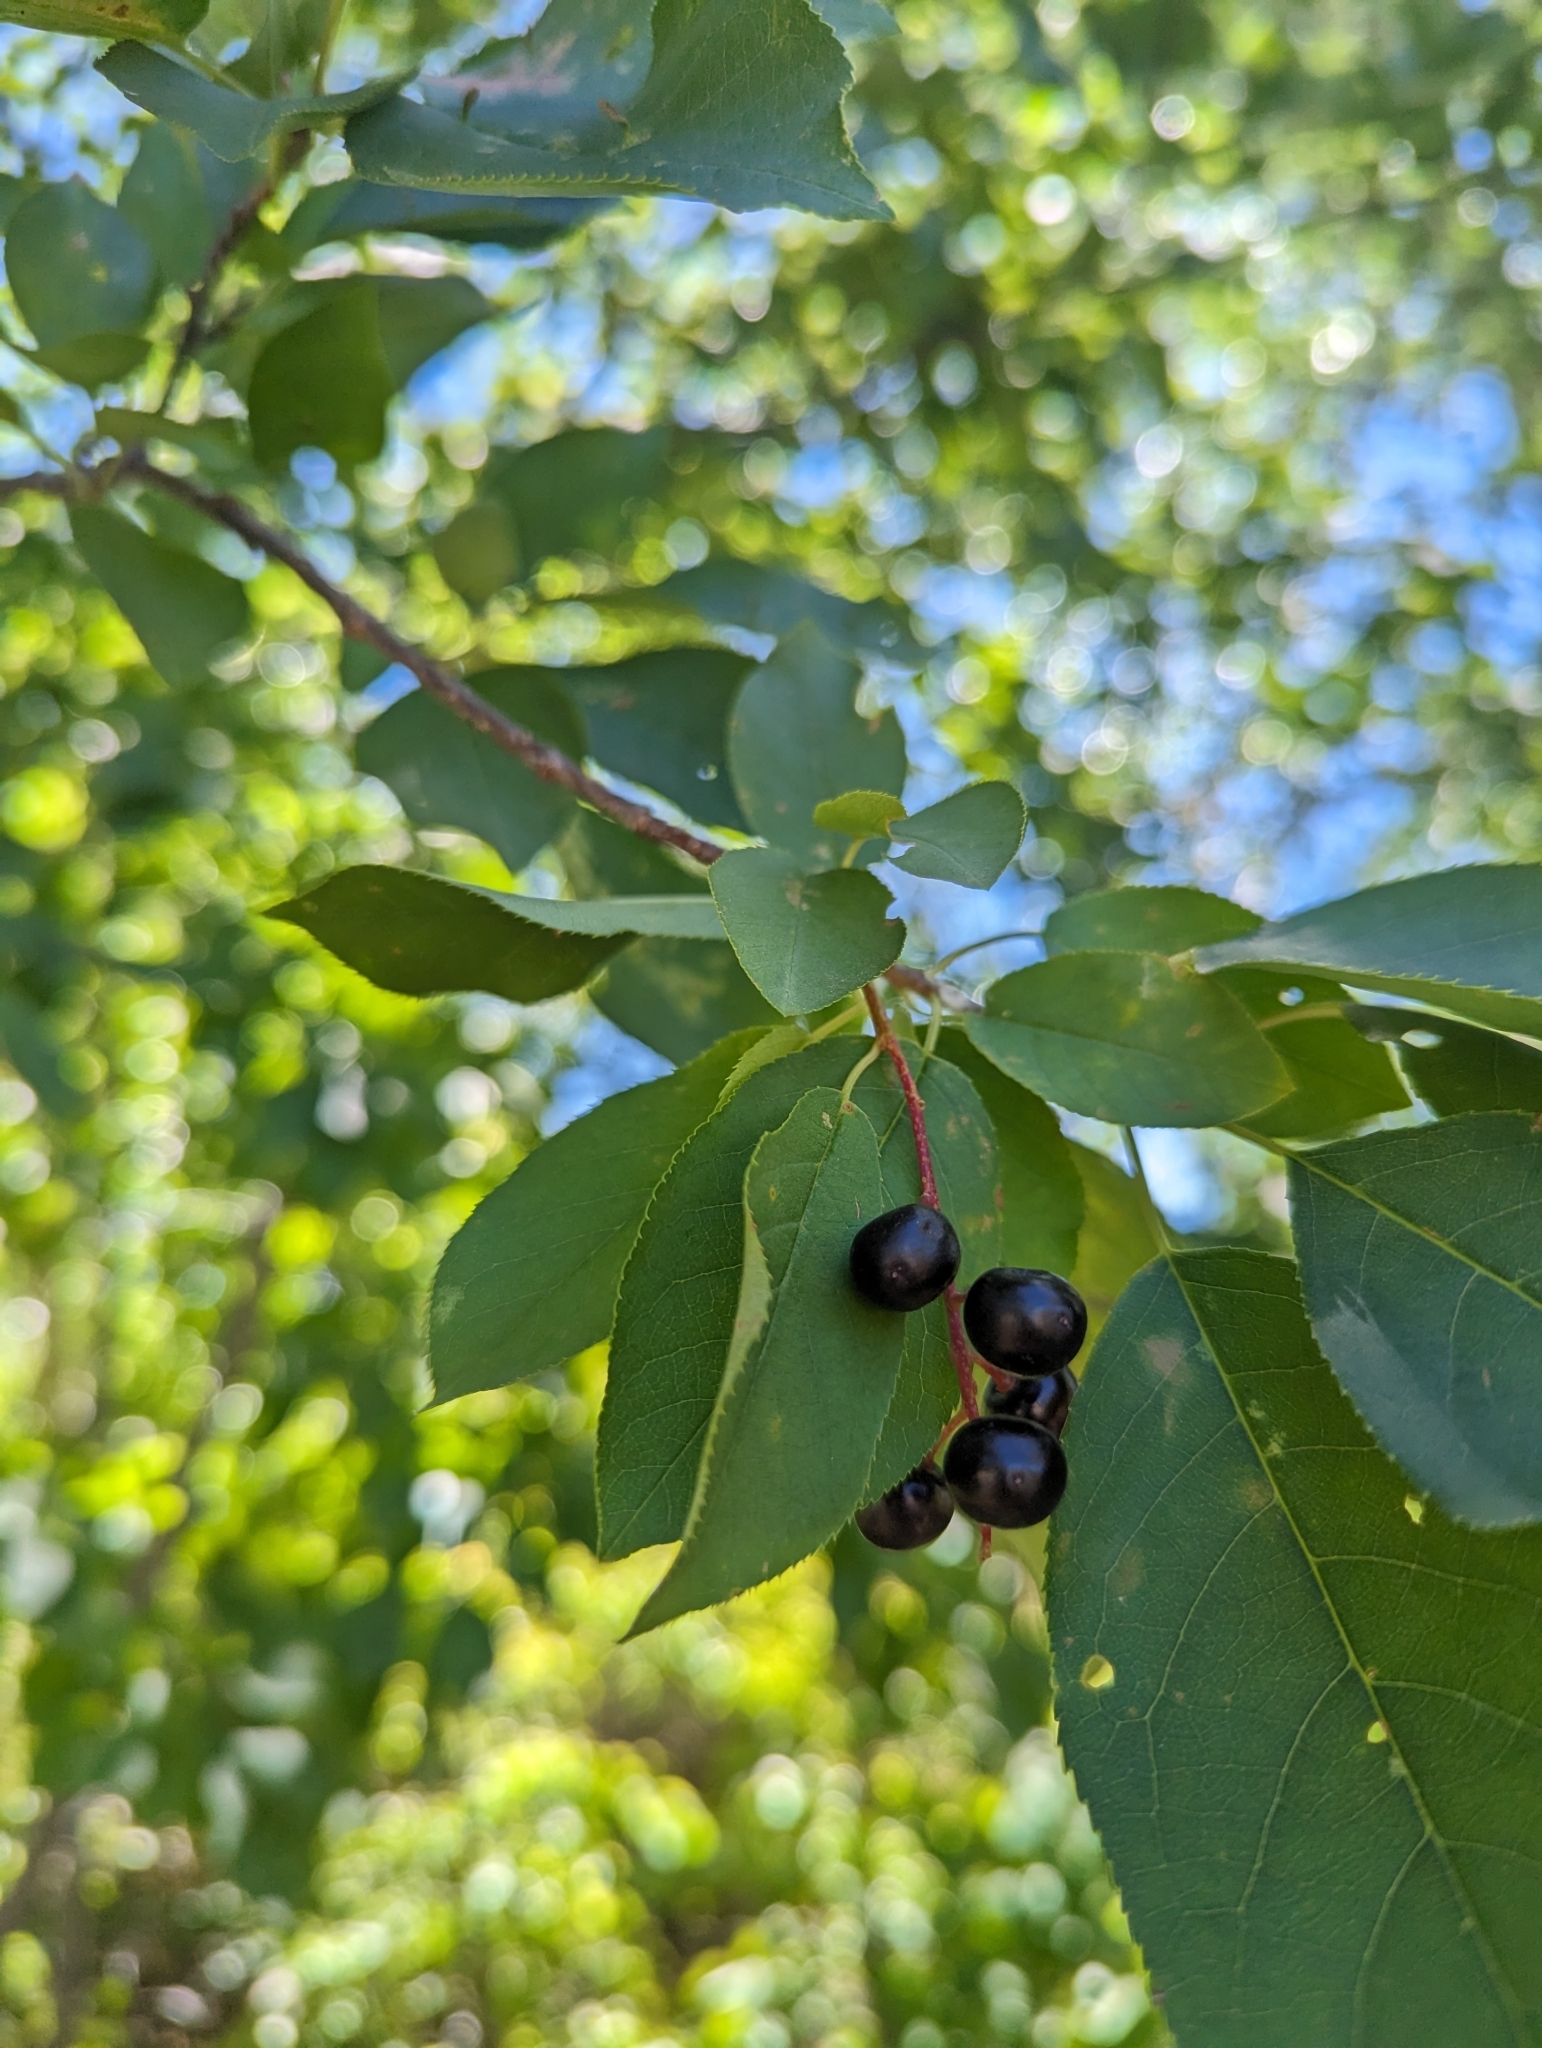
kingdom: Plantae
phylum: Tracheophyta
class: Magnoliopsida
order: Rosales
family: Rosaceae
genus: Prunus
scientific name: Prunus virginiana
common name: Chokecherry
